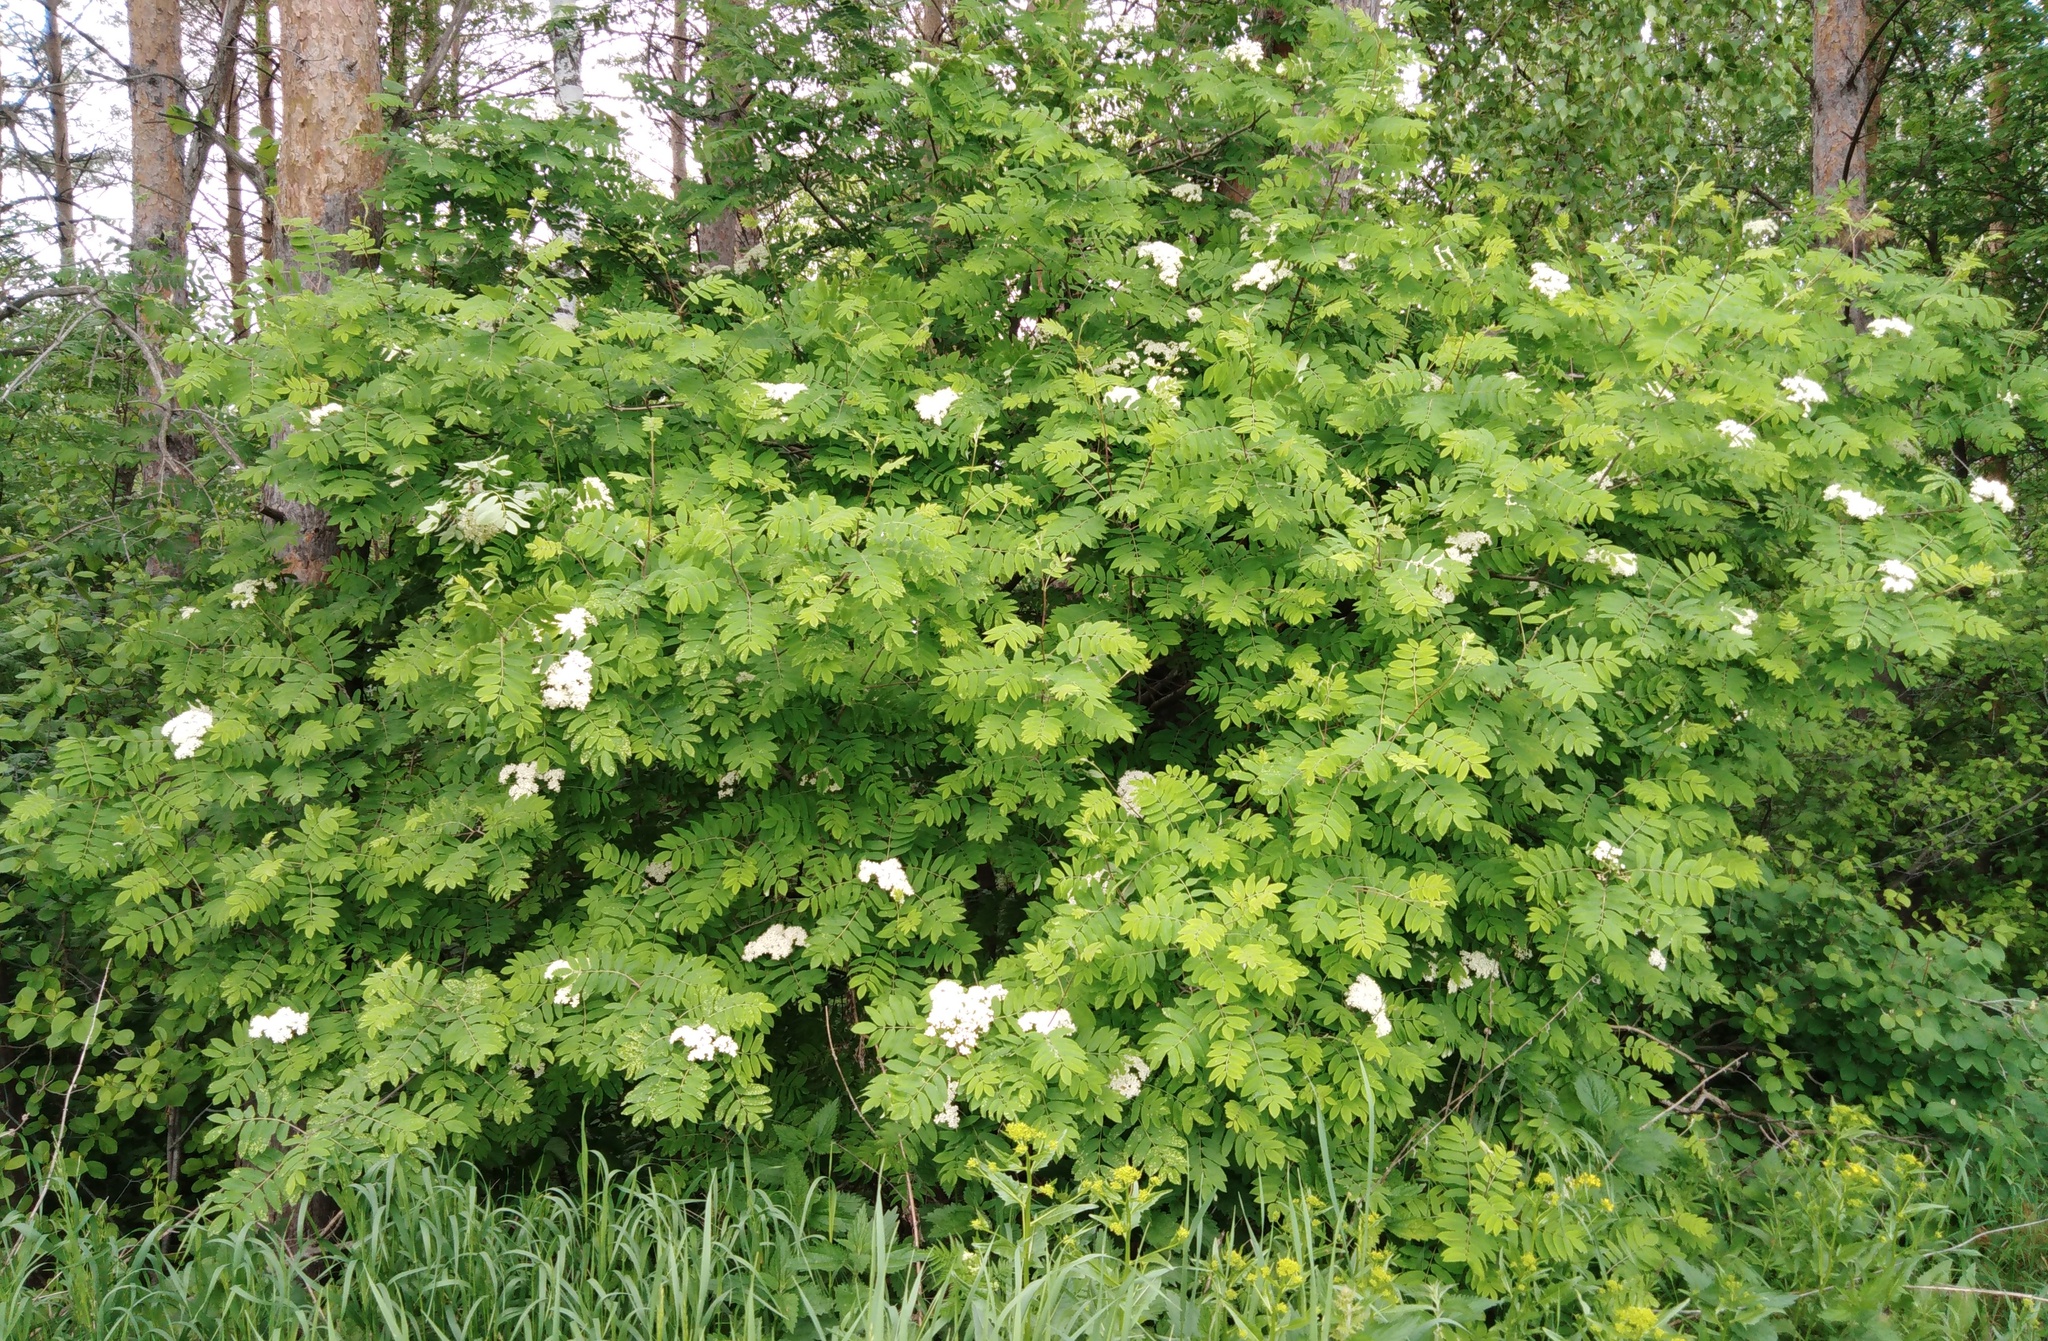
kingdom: Plantae
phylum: Tracheophyta
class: Magnoliopsida
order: Rosales
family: Rosaceae
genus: Sorbus
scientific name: Sorbus aucuparia
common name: Rowan
